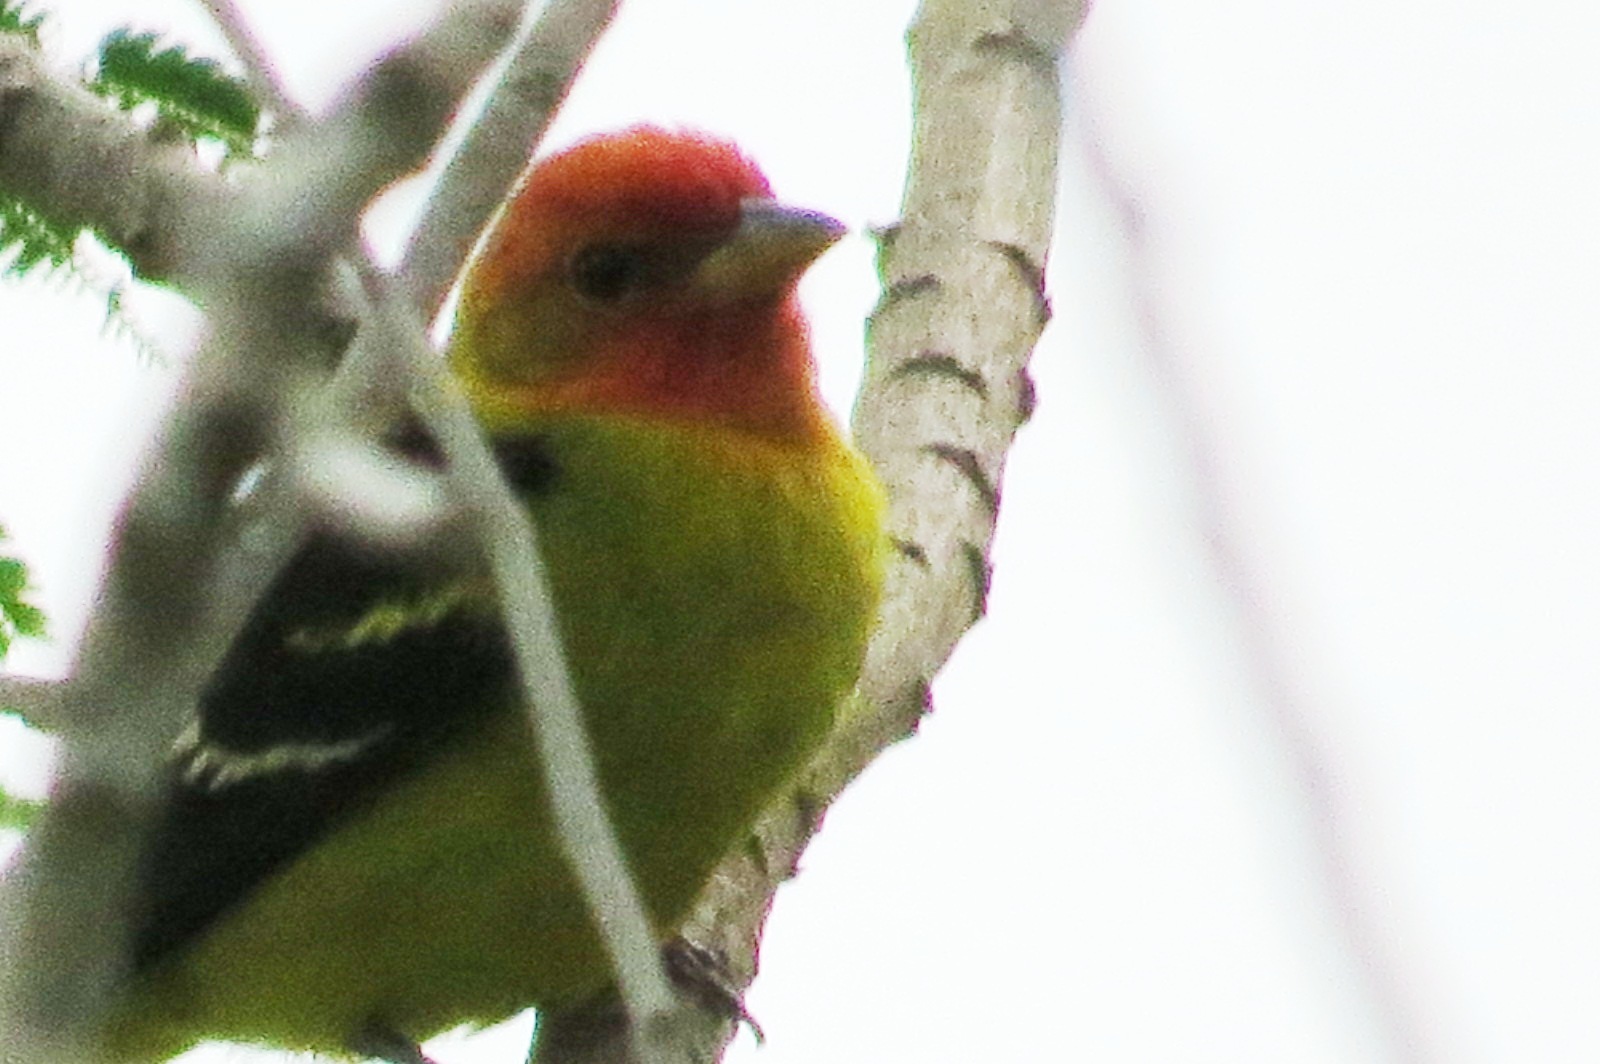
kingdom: Animalia
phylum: Chordata
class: Aves
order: Passeriformes
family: Cardinalidae
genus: Piranga
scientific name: Piranga ludoviciana
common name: Western tanager
